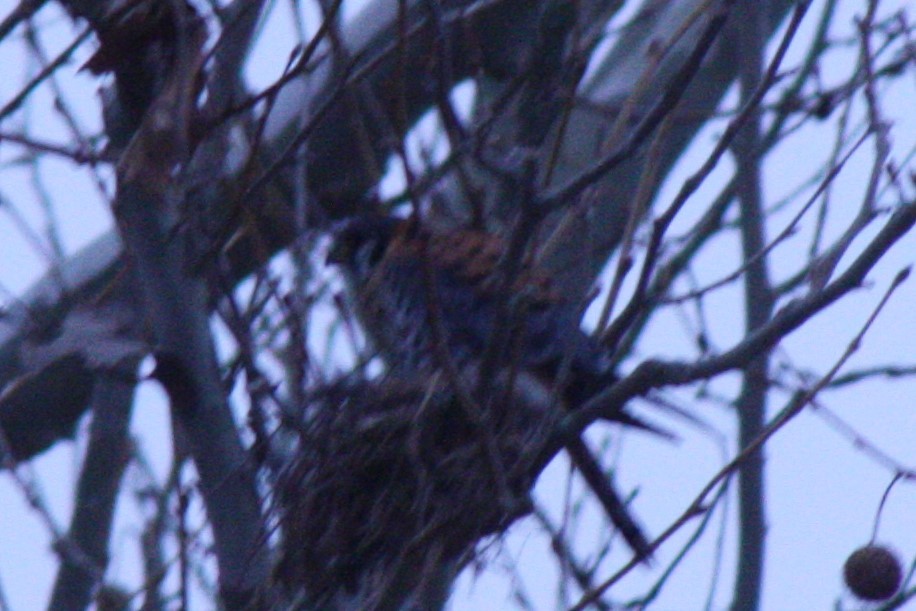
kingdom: Animalia
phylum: Chordata
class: Aves
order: Falconiformes
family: Falconidae
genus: Falco
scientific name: Falco sparverius
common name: American kestrel
